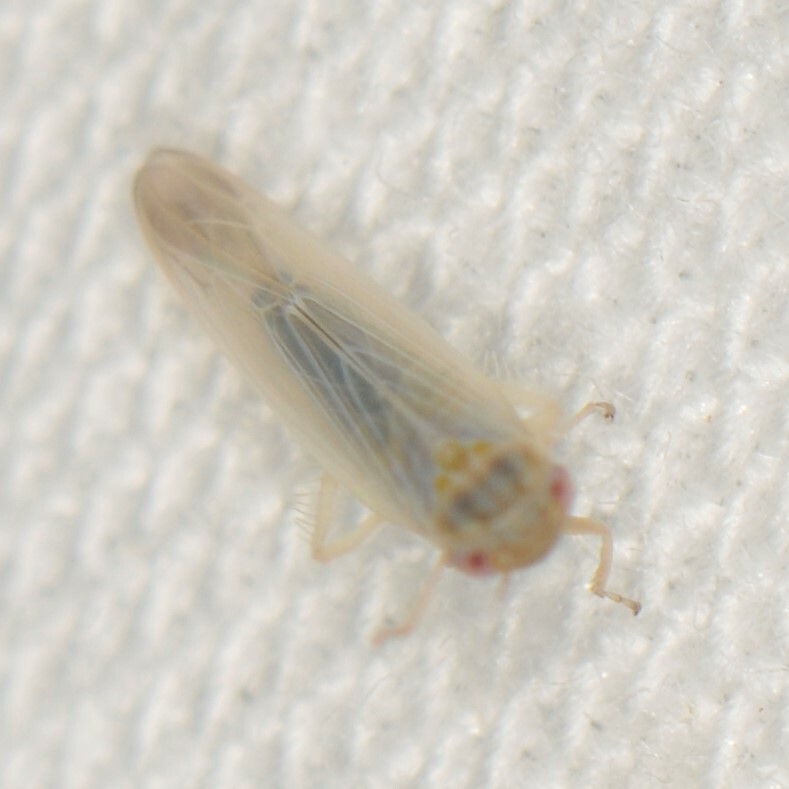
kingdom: Animalia
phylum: Arthropoda
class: Insecta
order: Hemiptera
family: Cicadellidae
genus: Balclutha
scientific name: Balclutha
